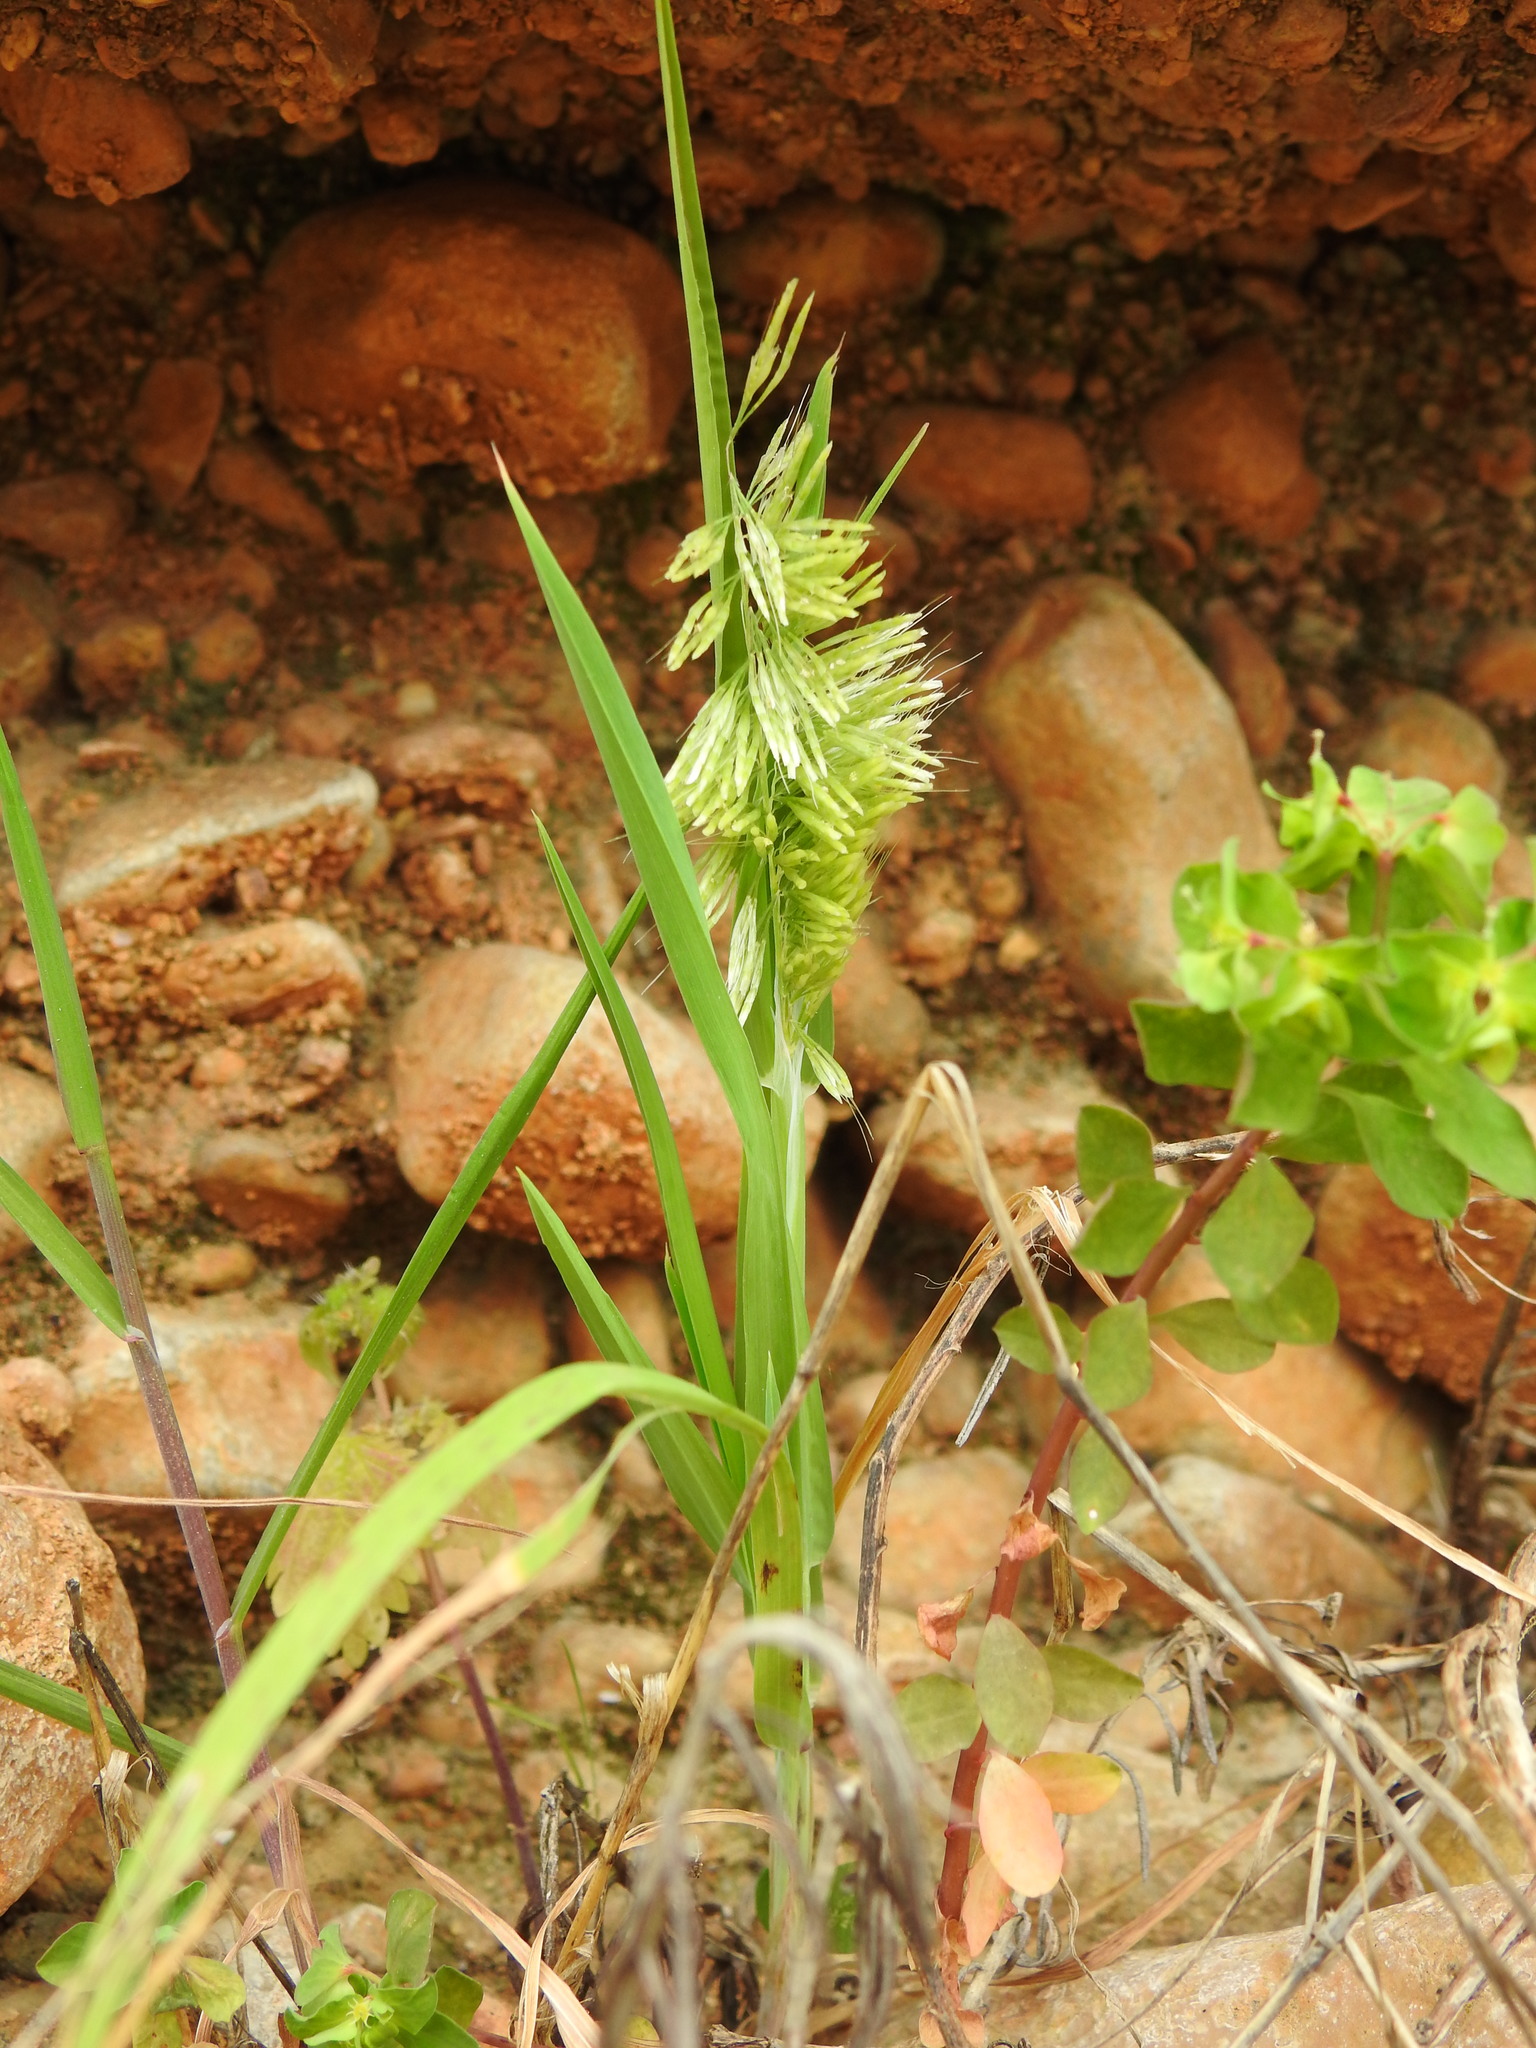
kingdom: Plantae
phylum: Tracheophyta
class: Liliopsida
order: Poales
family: Poaceae
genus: Lamarckia
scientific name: Lamarckia aurea
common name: Golden dog's-tail
